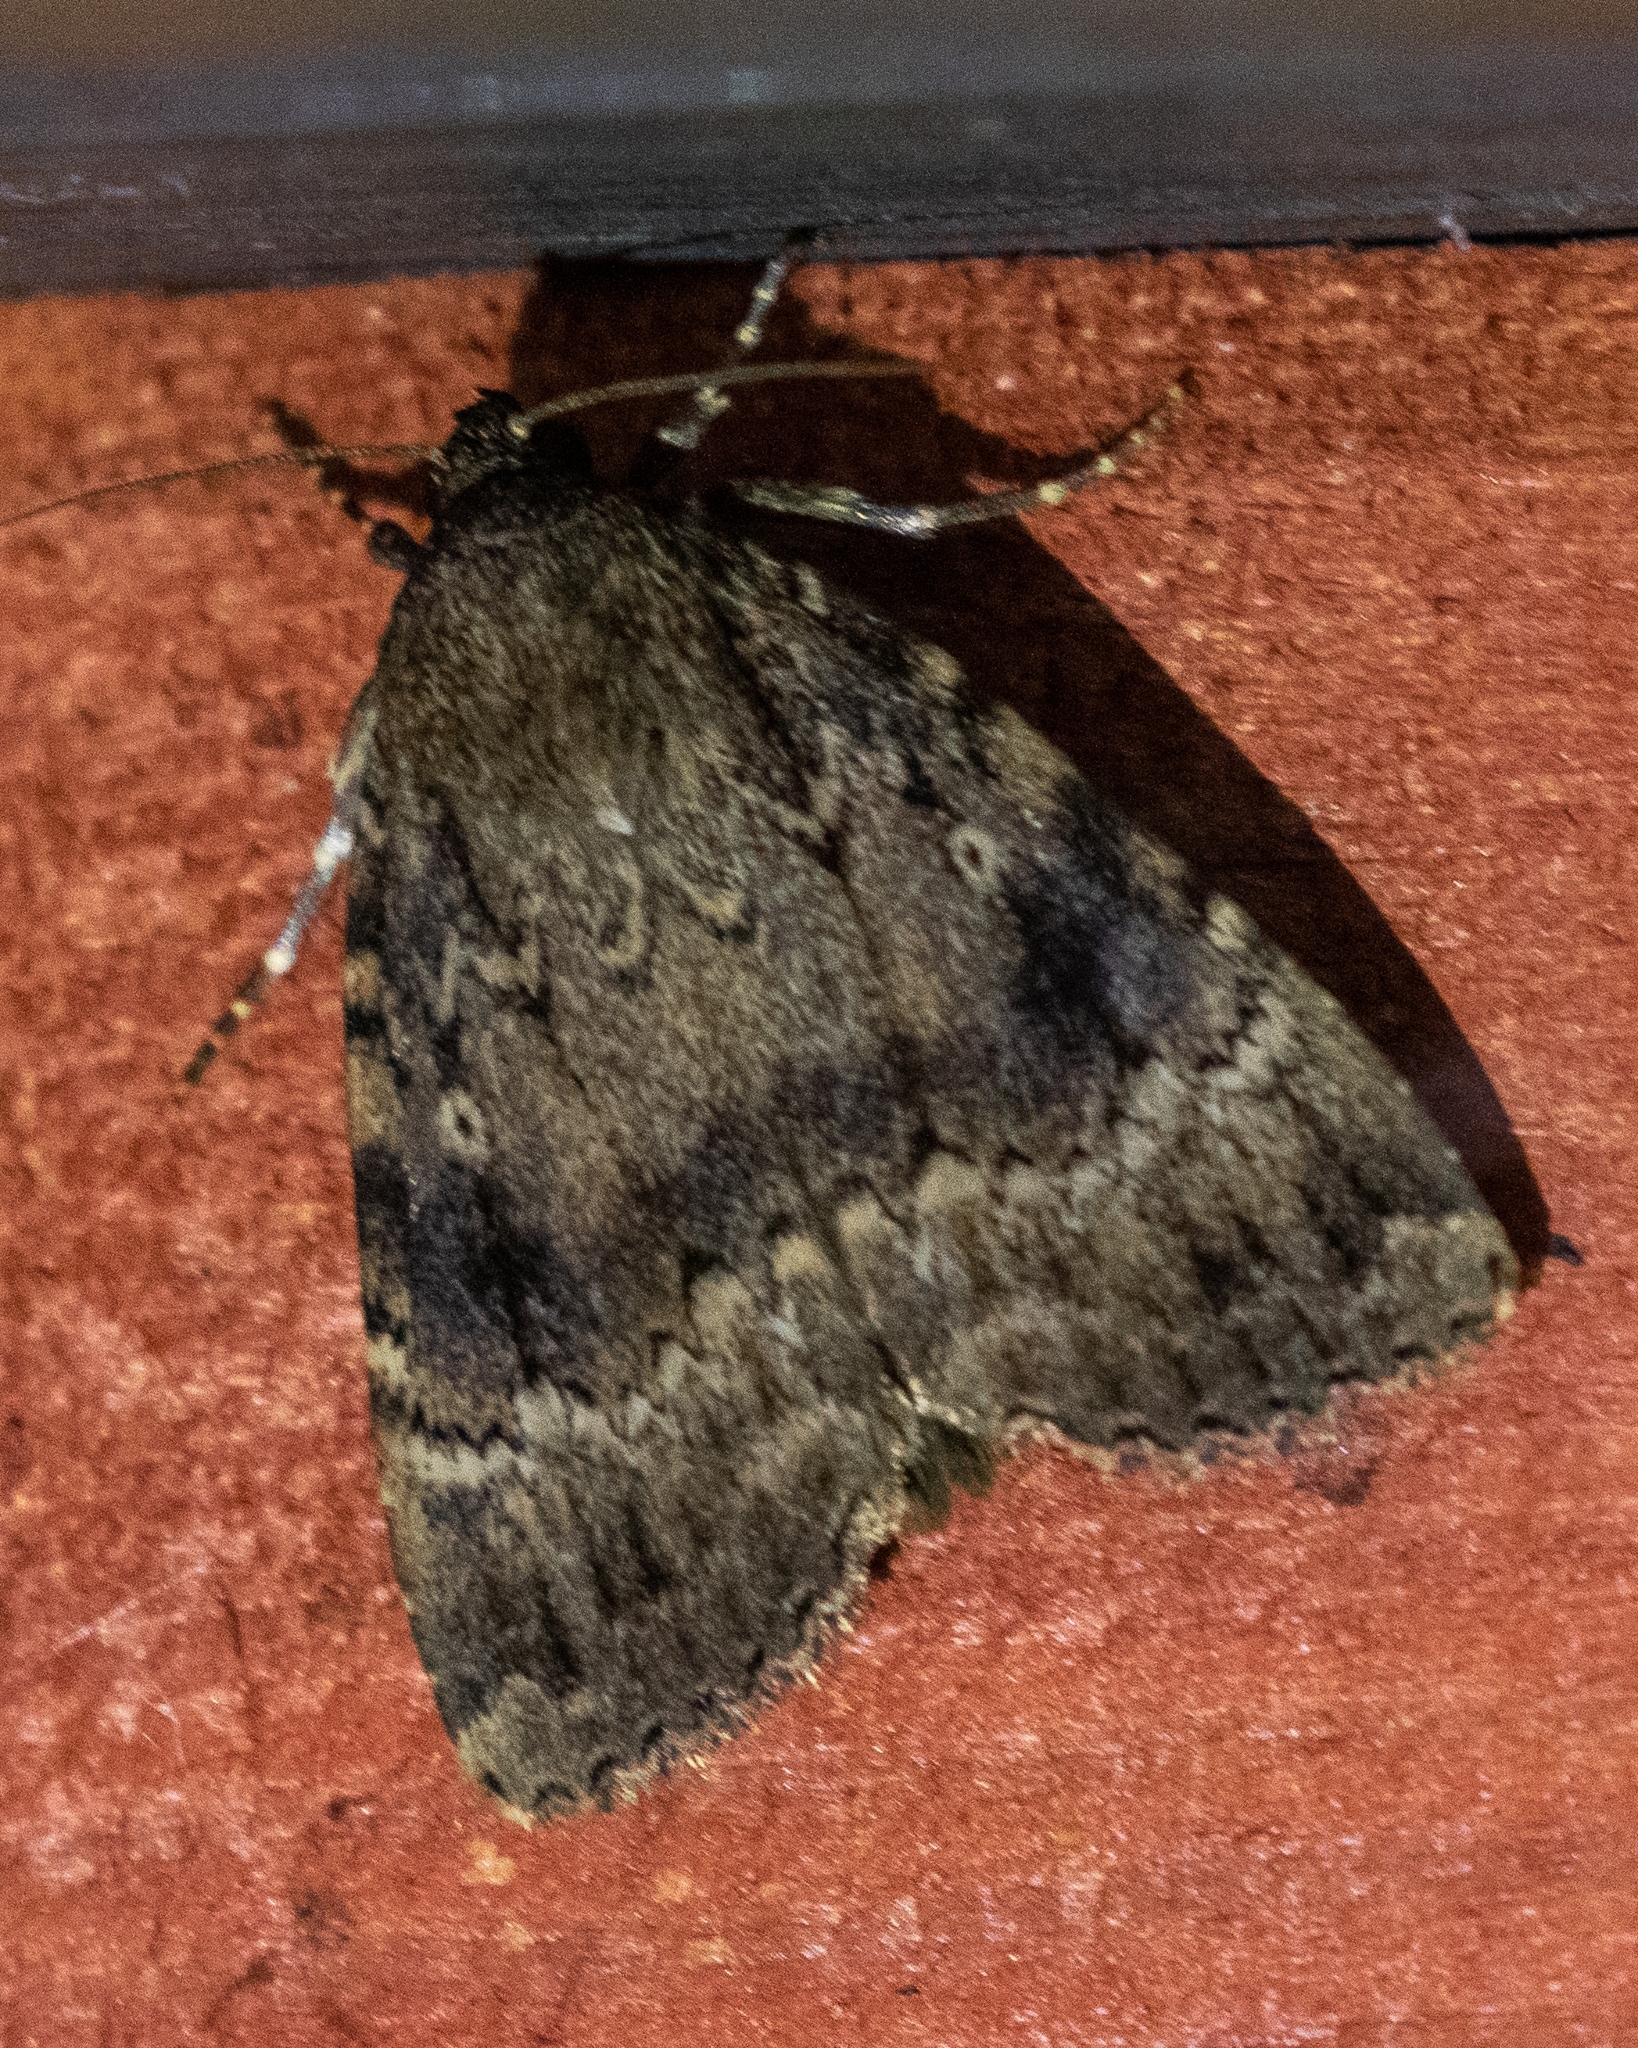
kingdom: Animalia
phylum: Arthropoda
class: Insecta
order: Lepidoptera
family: Noctuidae
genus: Amphipyra
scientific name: Amphipyra pyramidea
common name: Copper underwing
